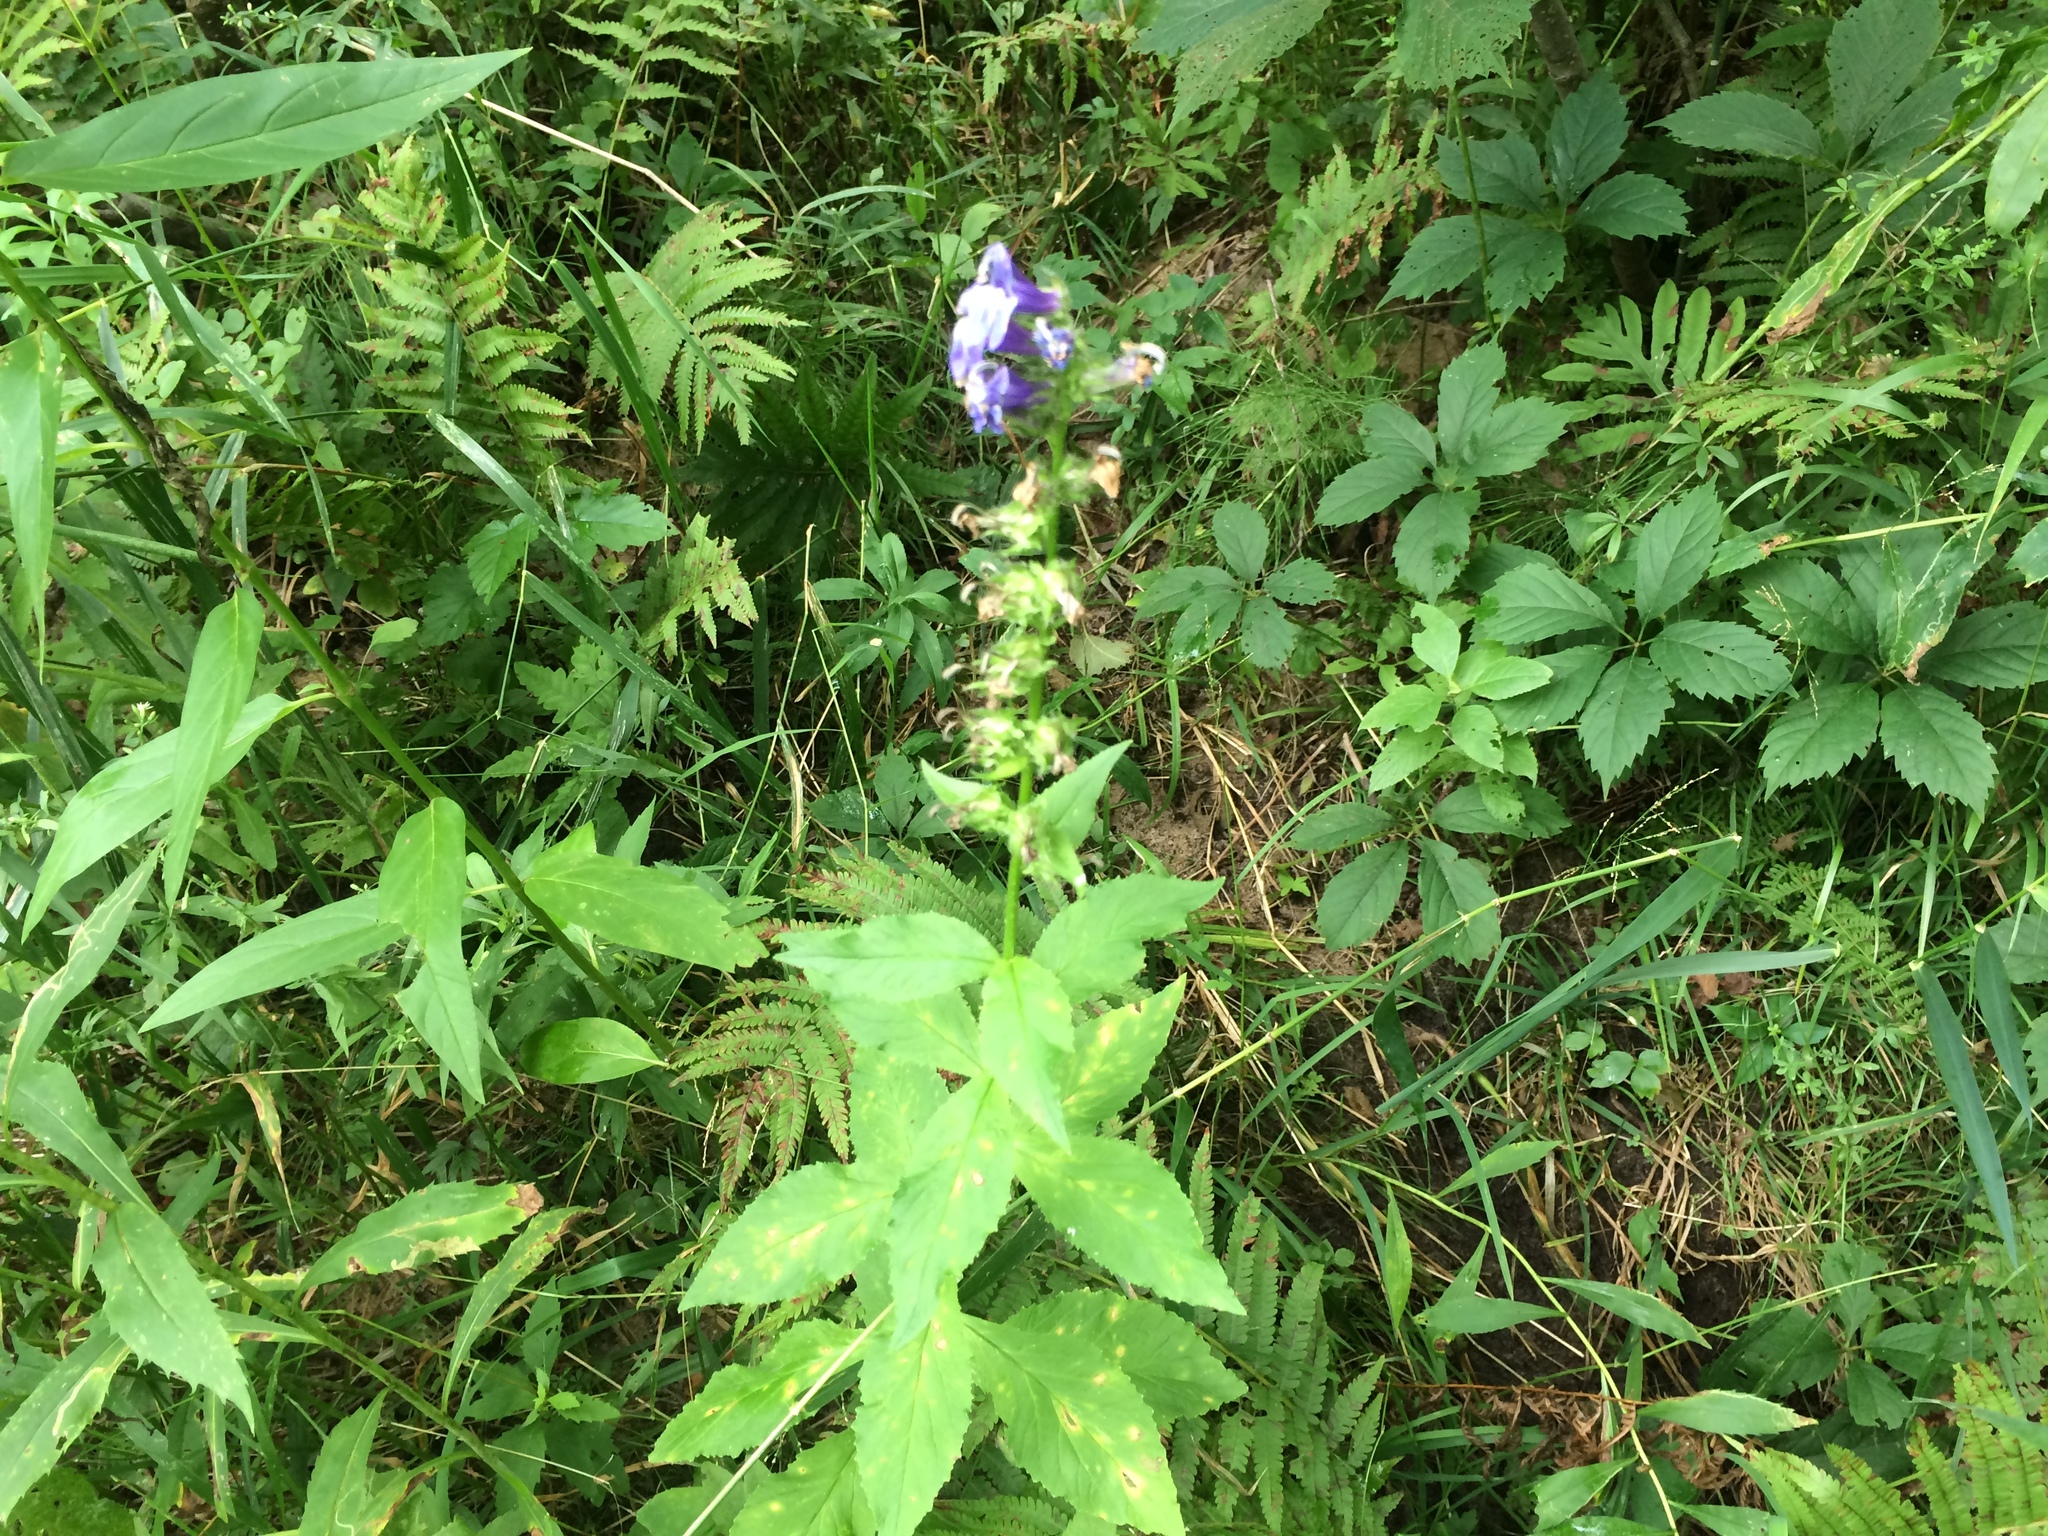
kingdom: Plantae
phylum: Tracheophyta
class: Magnoliopsida
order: Asterales
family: Campanulaceae
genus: Lobelia
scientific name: Lobelia siphilitica
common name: Great lobelia
